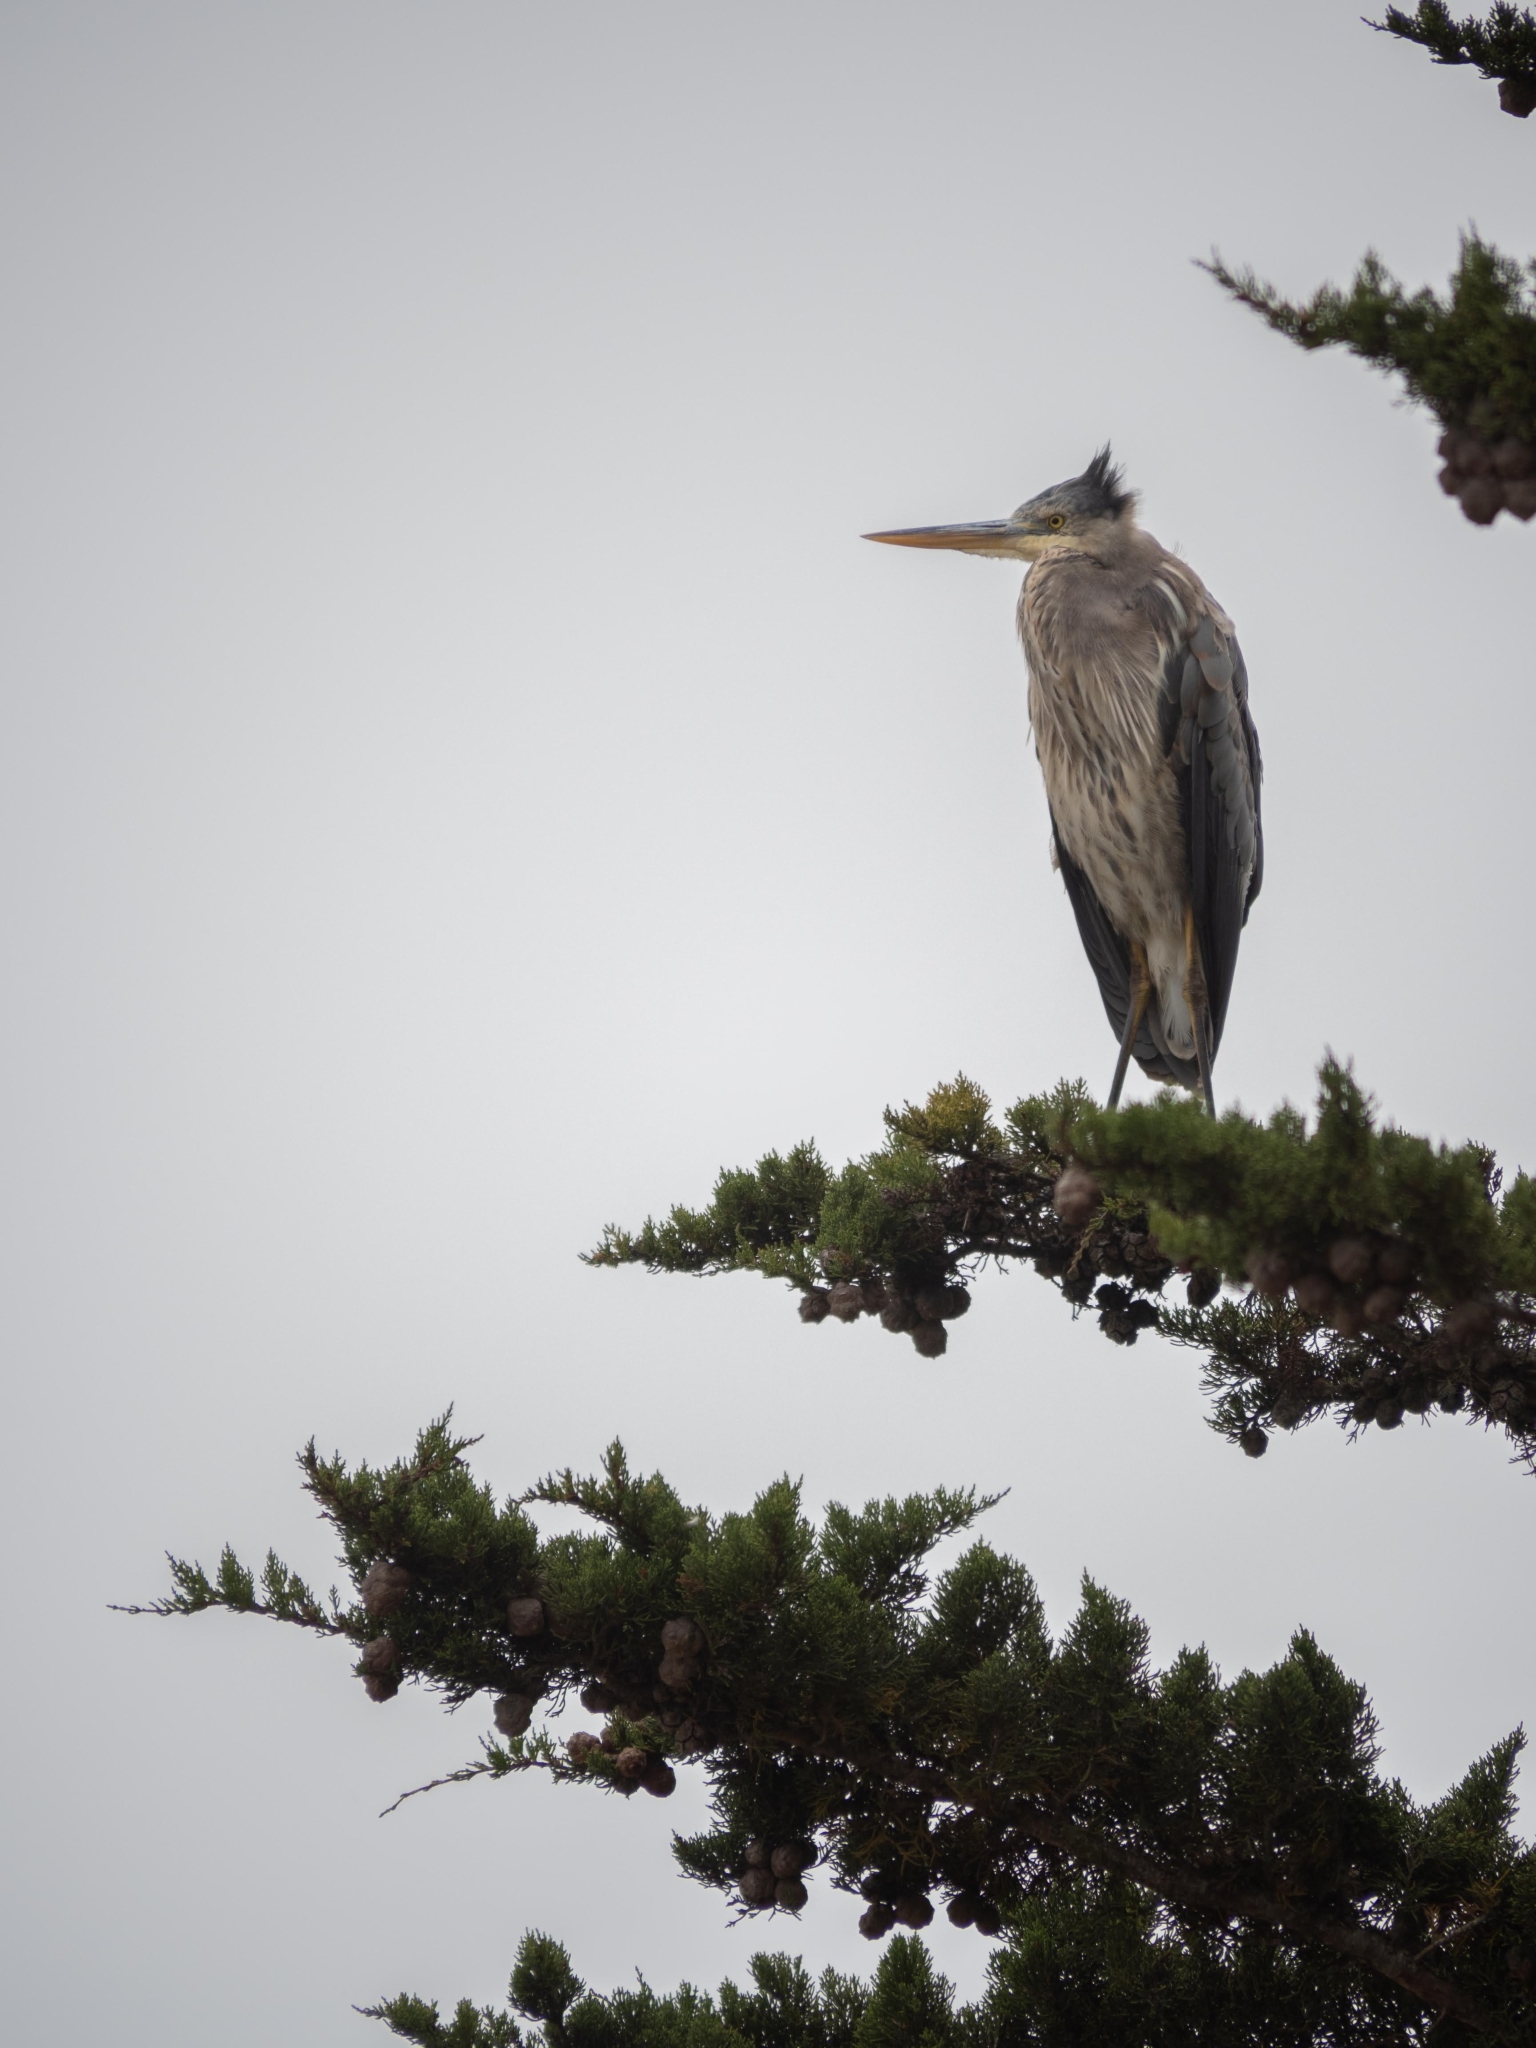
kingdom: Animalia
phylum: Chordata
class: Aves
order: Pelecaniformes
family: Ardeidae
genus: Ardea
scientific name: Ardea herodias
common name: Great blue heron
